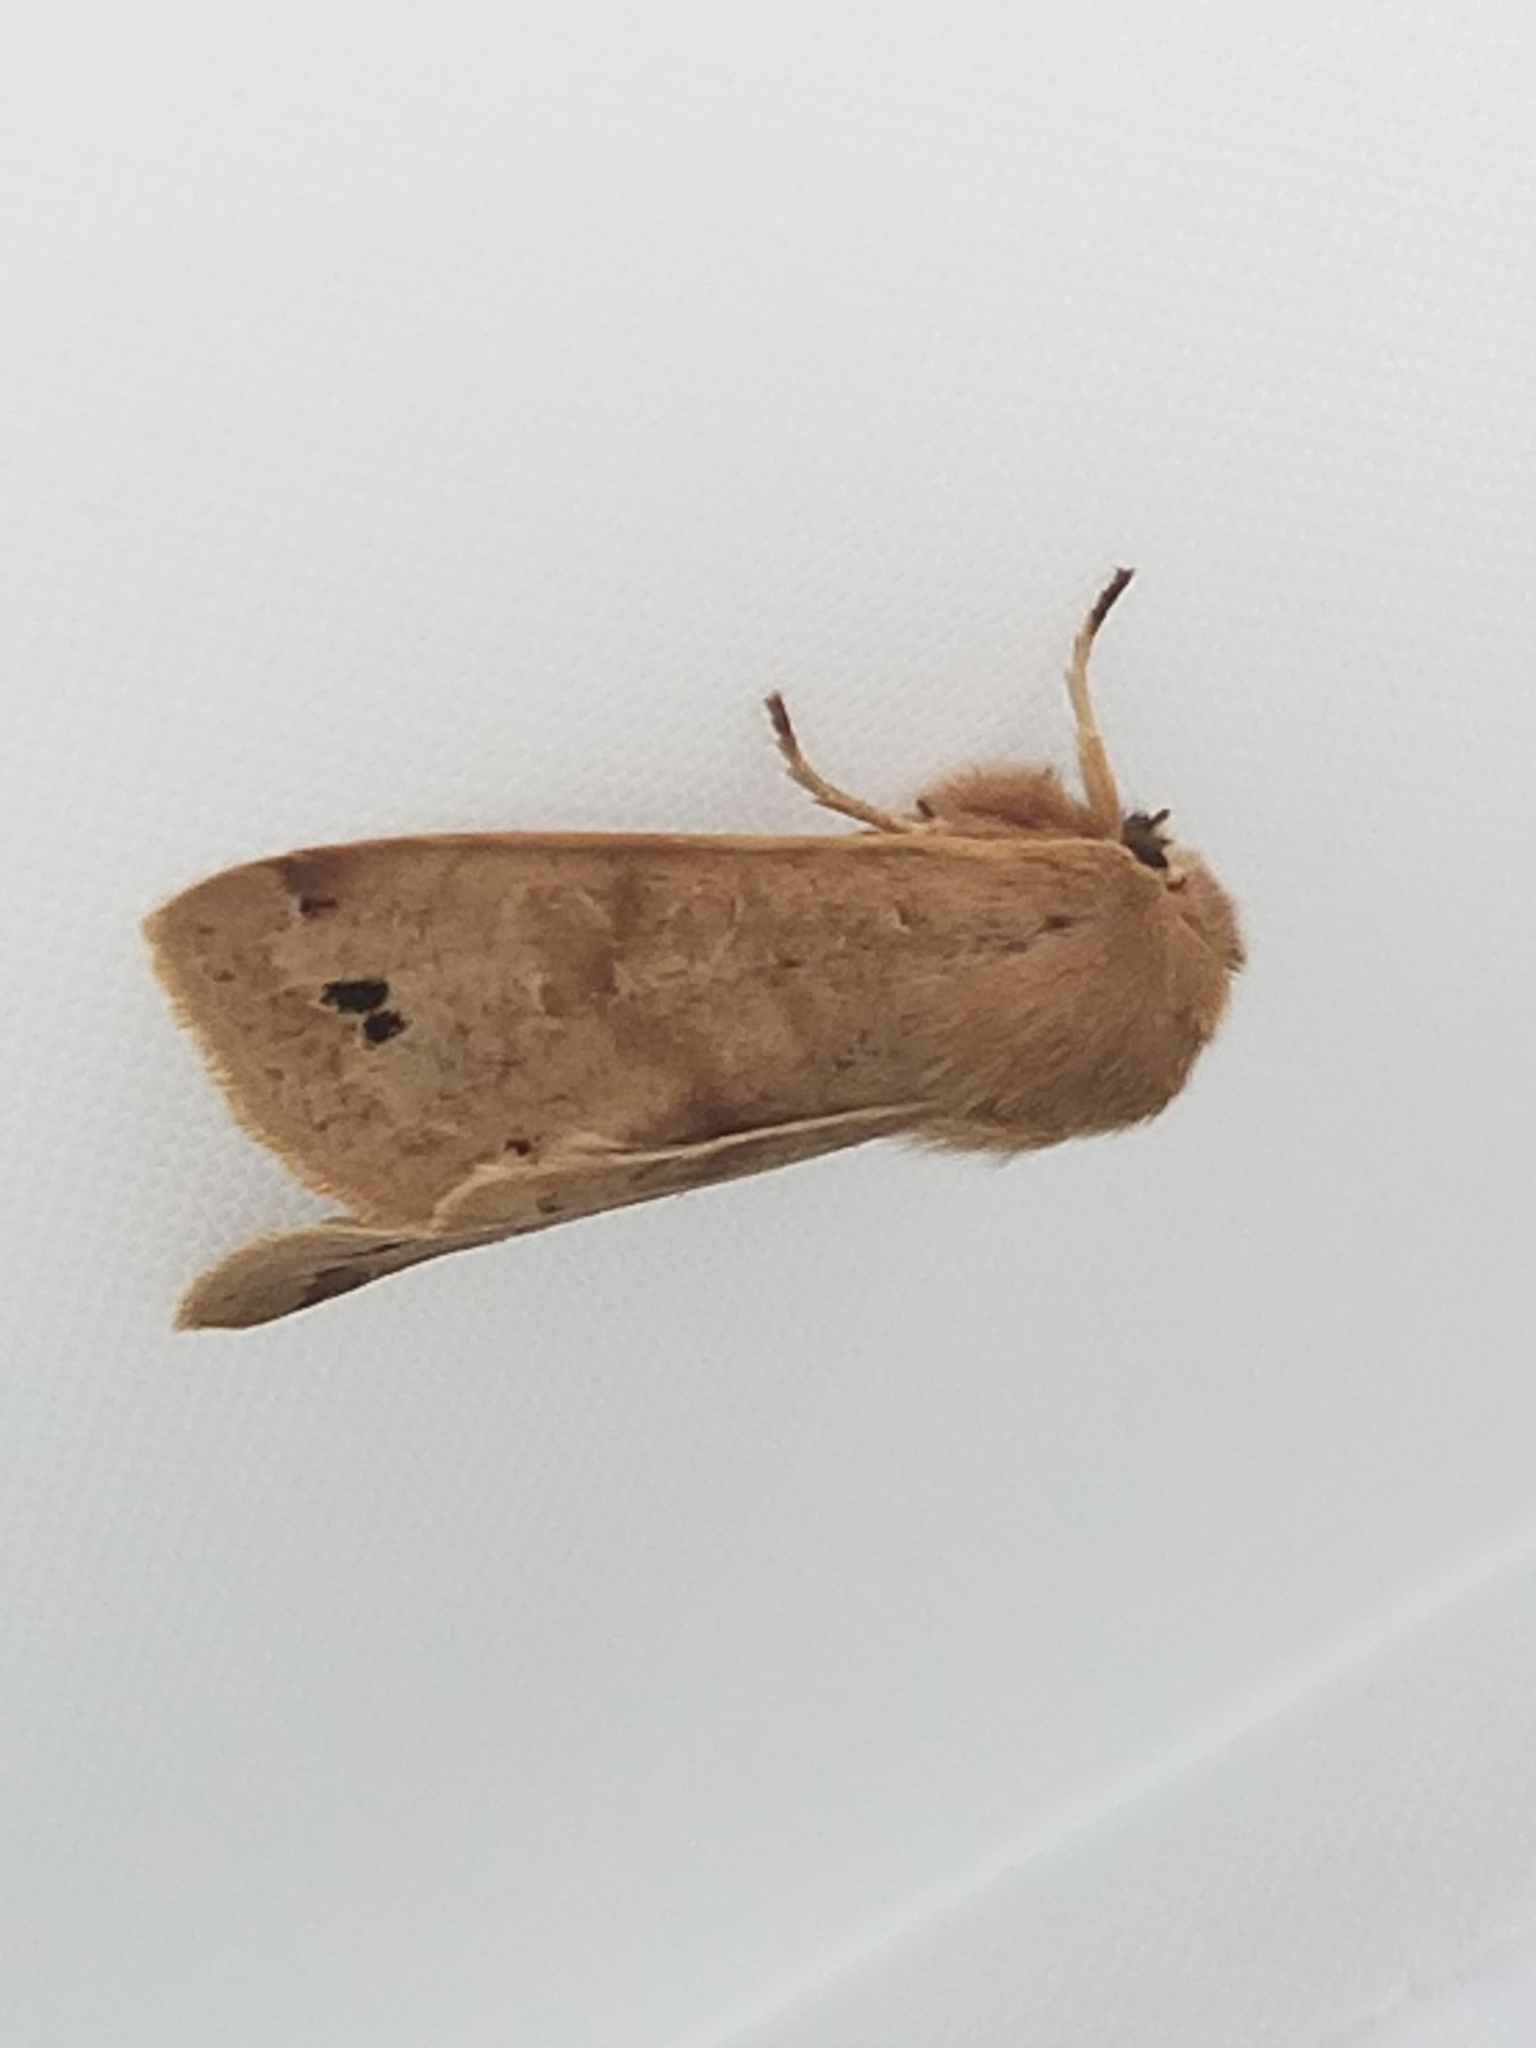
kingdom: Animalia
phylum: Arthropoda
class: Insecta
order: Lepidoptera
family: Noctuidae
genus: Anorthoa
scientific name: Anorthoa munda
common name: Twin-spotted quaker
